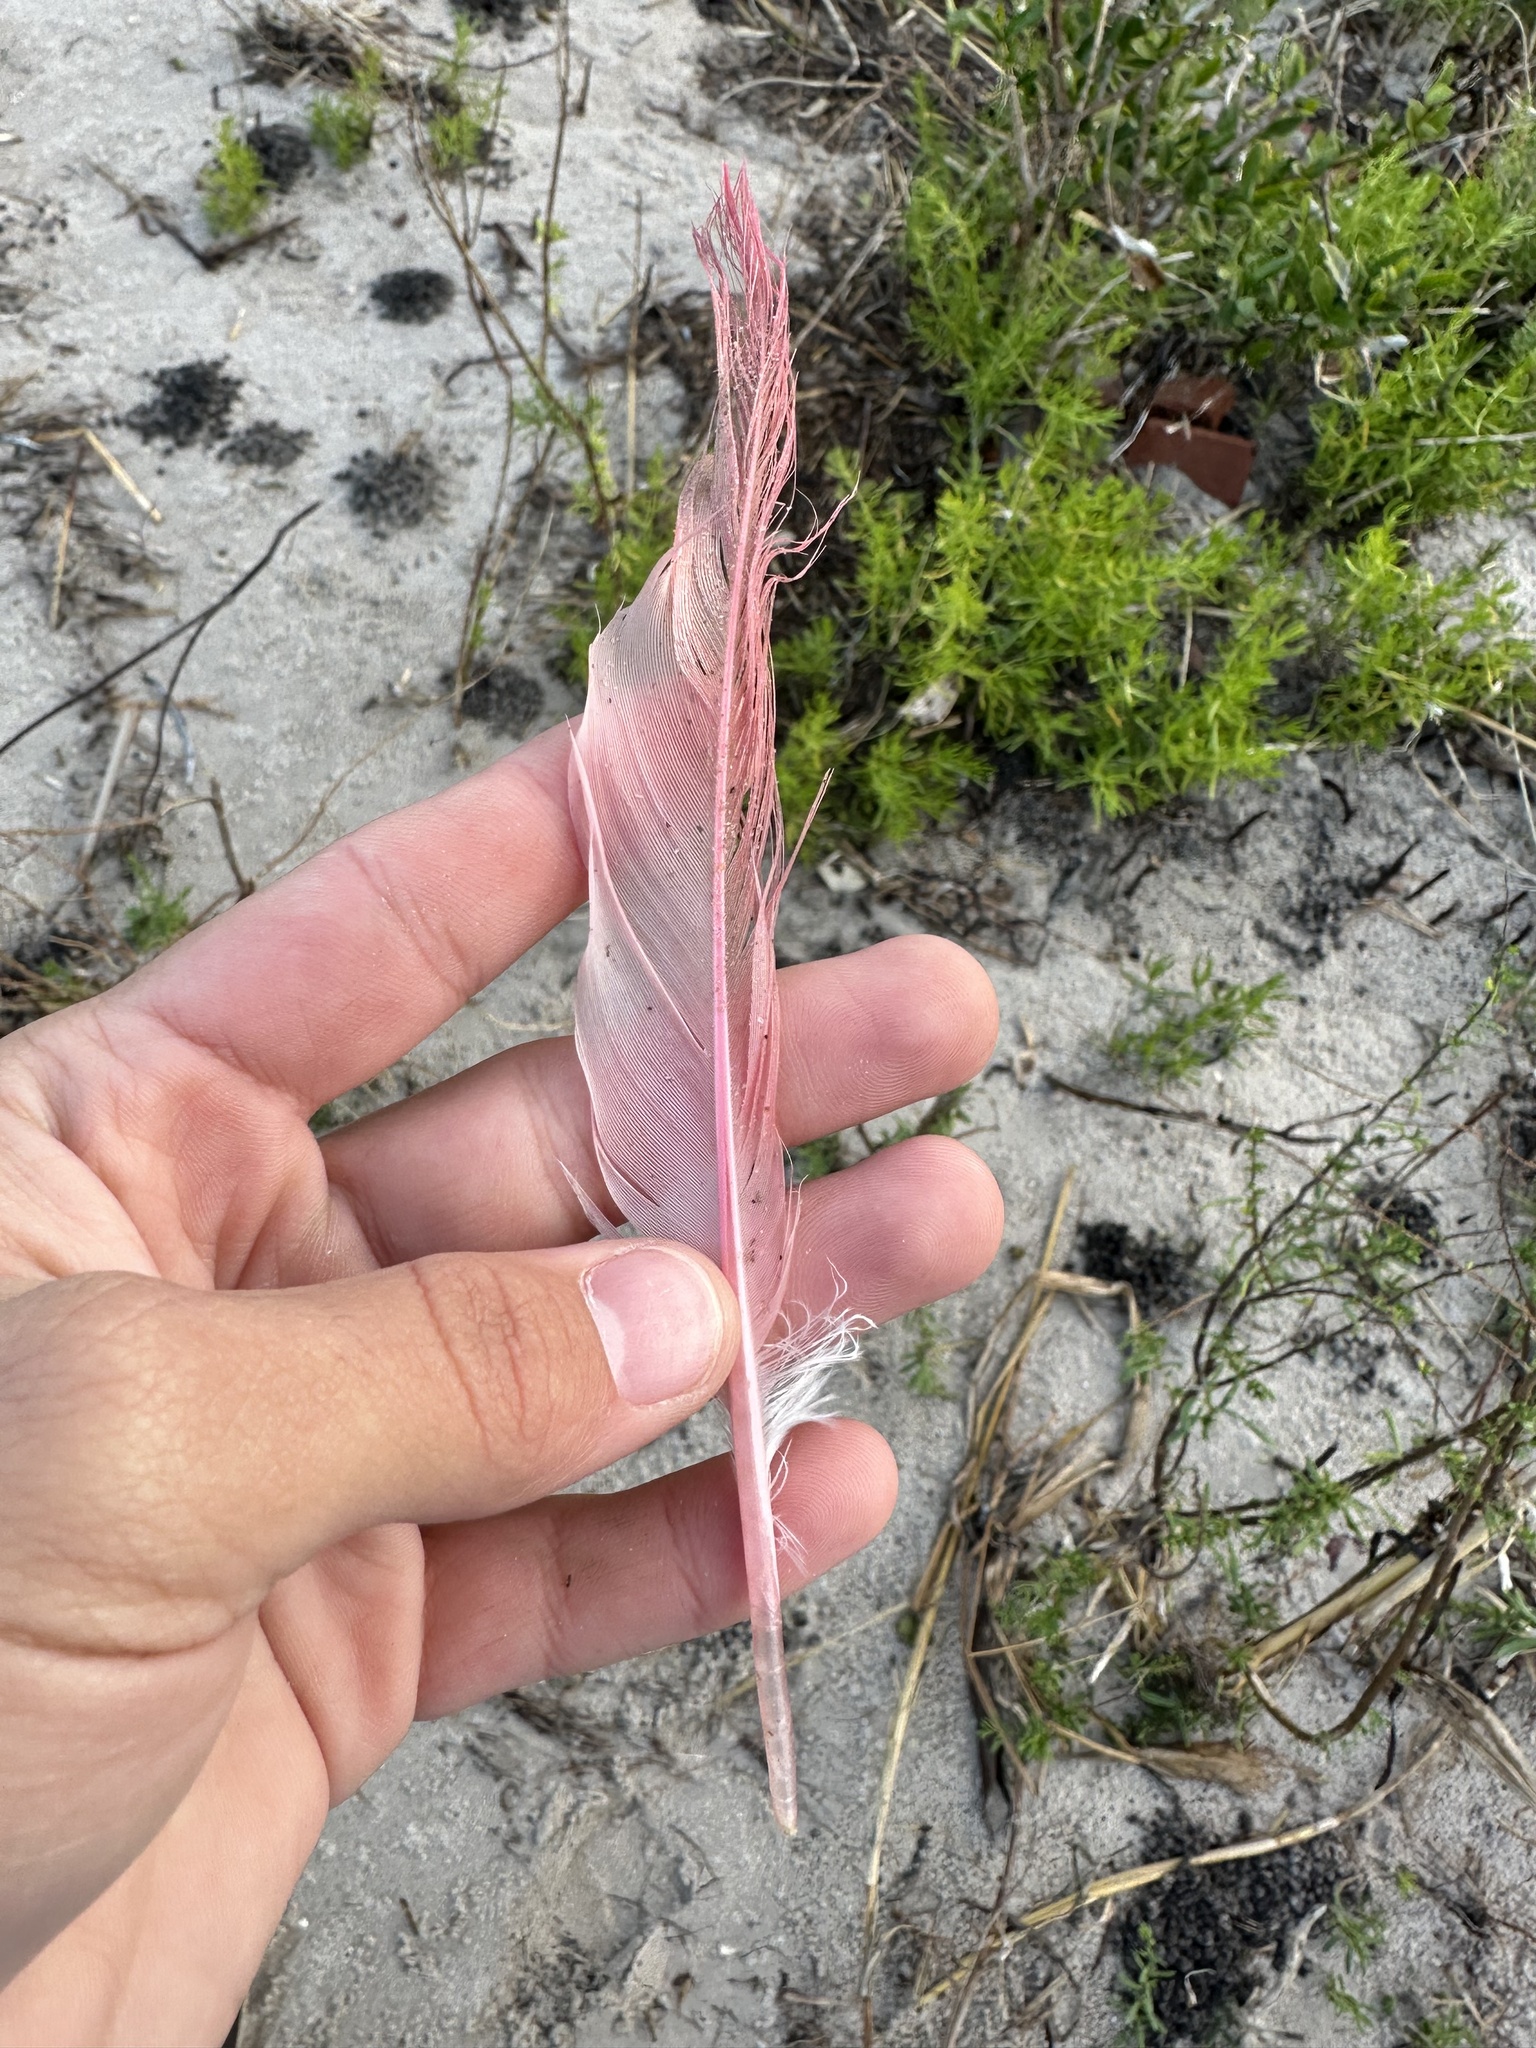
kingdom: Animalia
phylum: Chordata
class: Aves
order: Pelecaniformes
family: Threskiornithidae
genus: Platalea
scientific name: Platalea ajaja
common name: Roseate spoonbill
